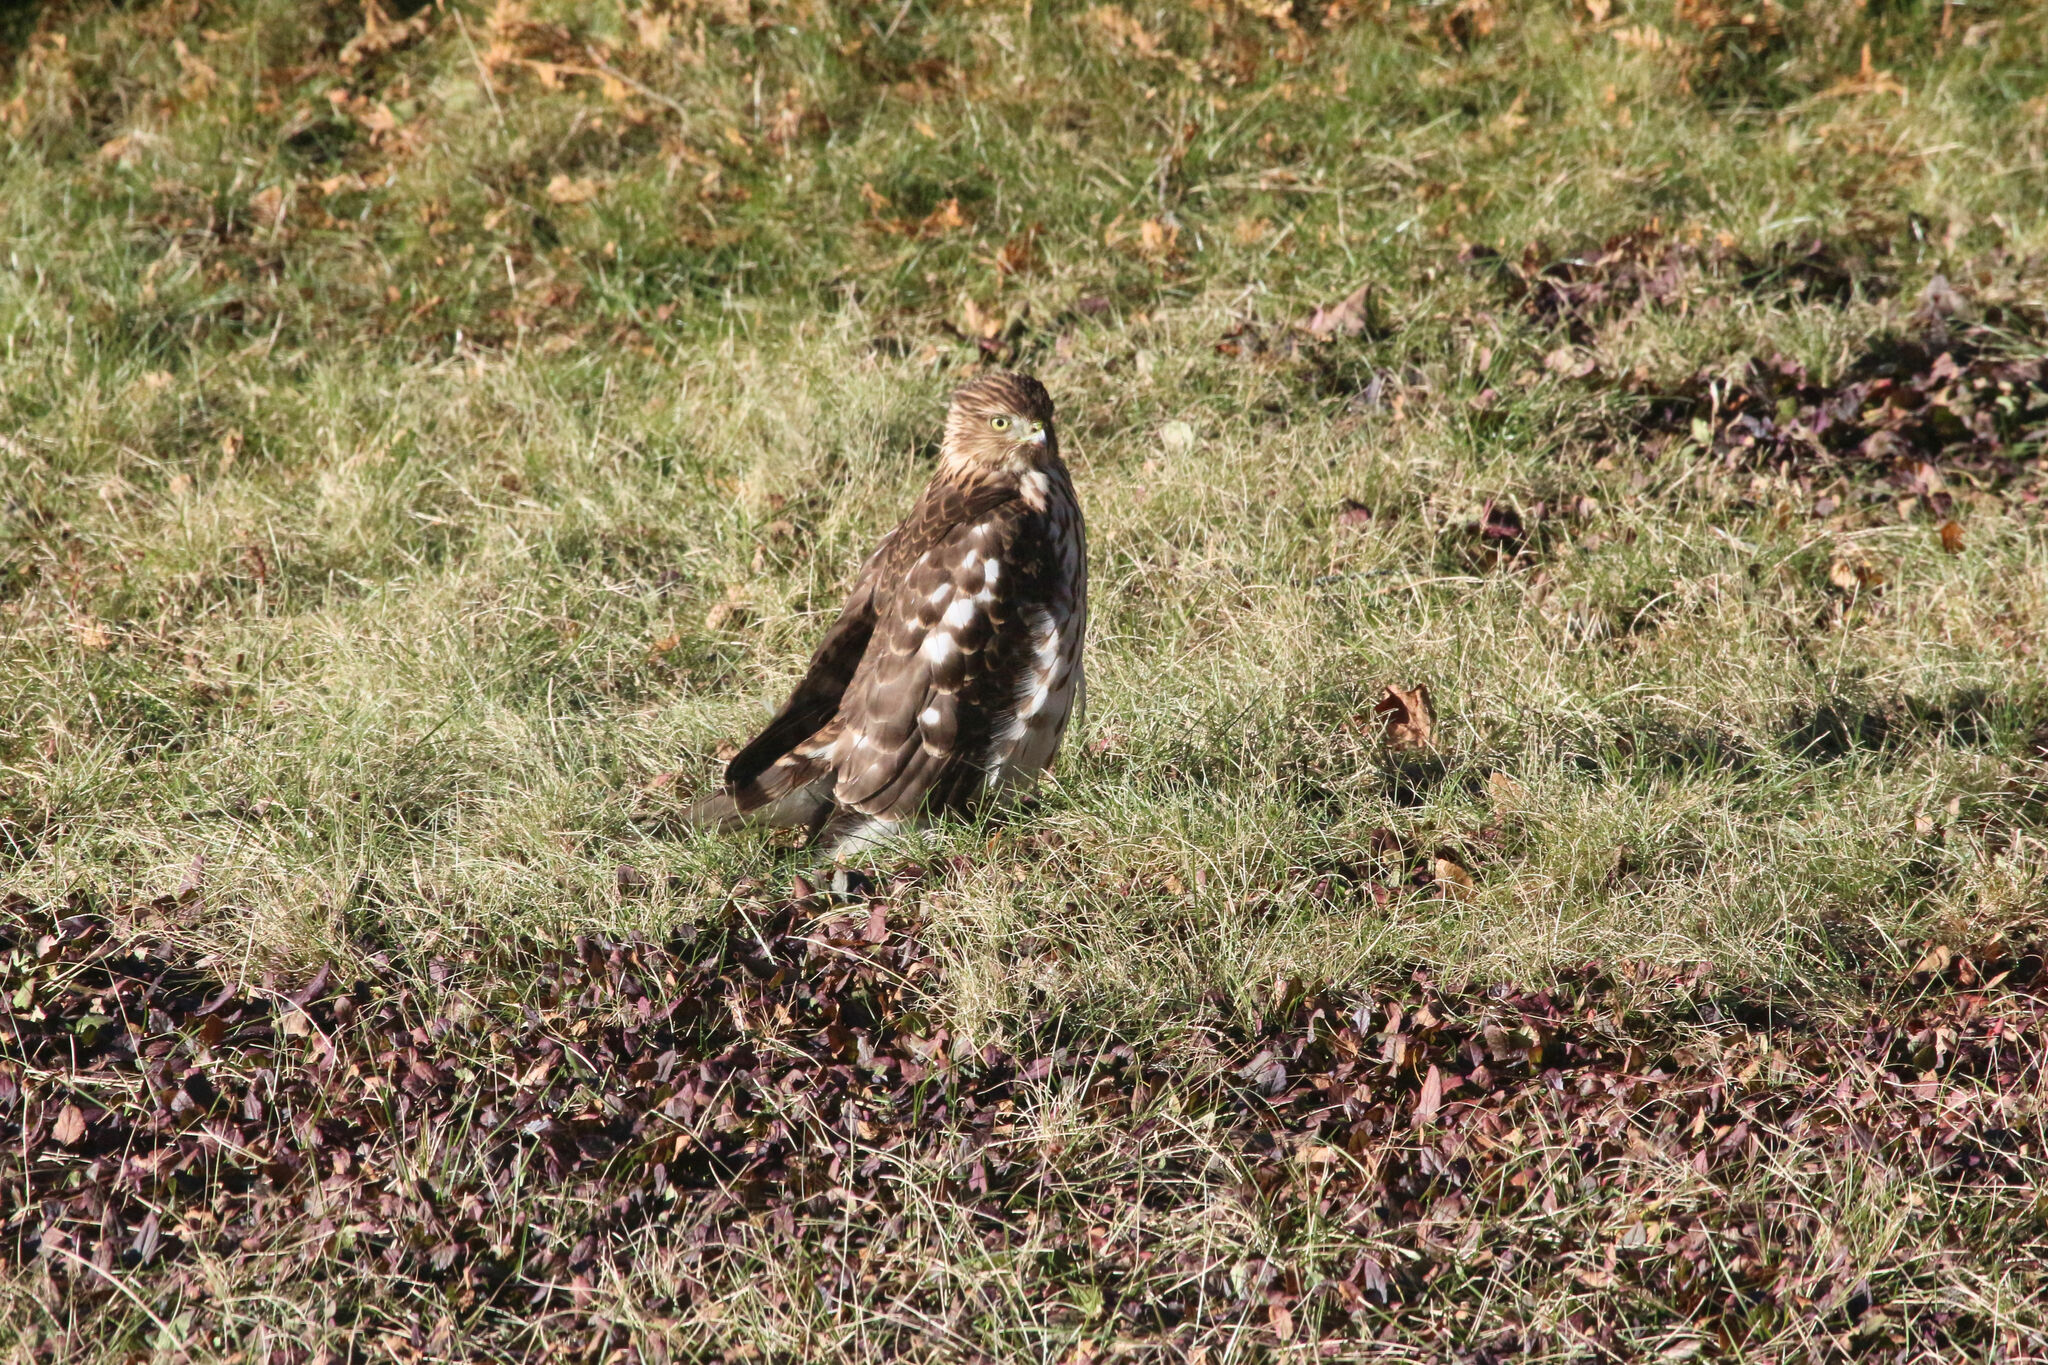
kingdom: Animalia
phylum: Chordata
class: Aves
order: Accipitriformes
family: Accipitridae
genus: Accipiter
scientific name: Accipiter cooperii
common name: Cooper's hawk
